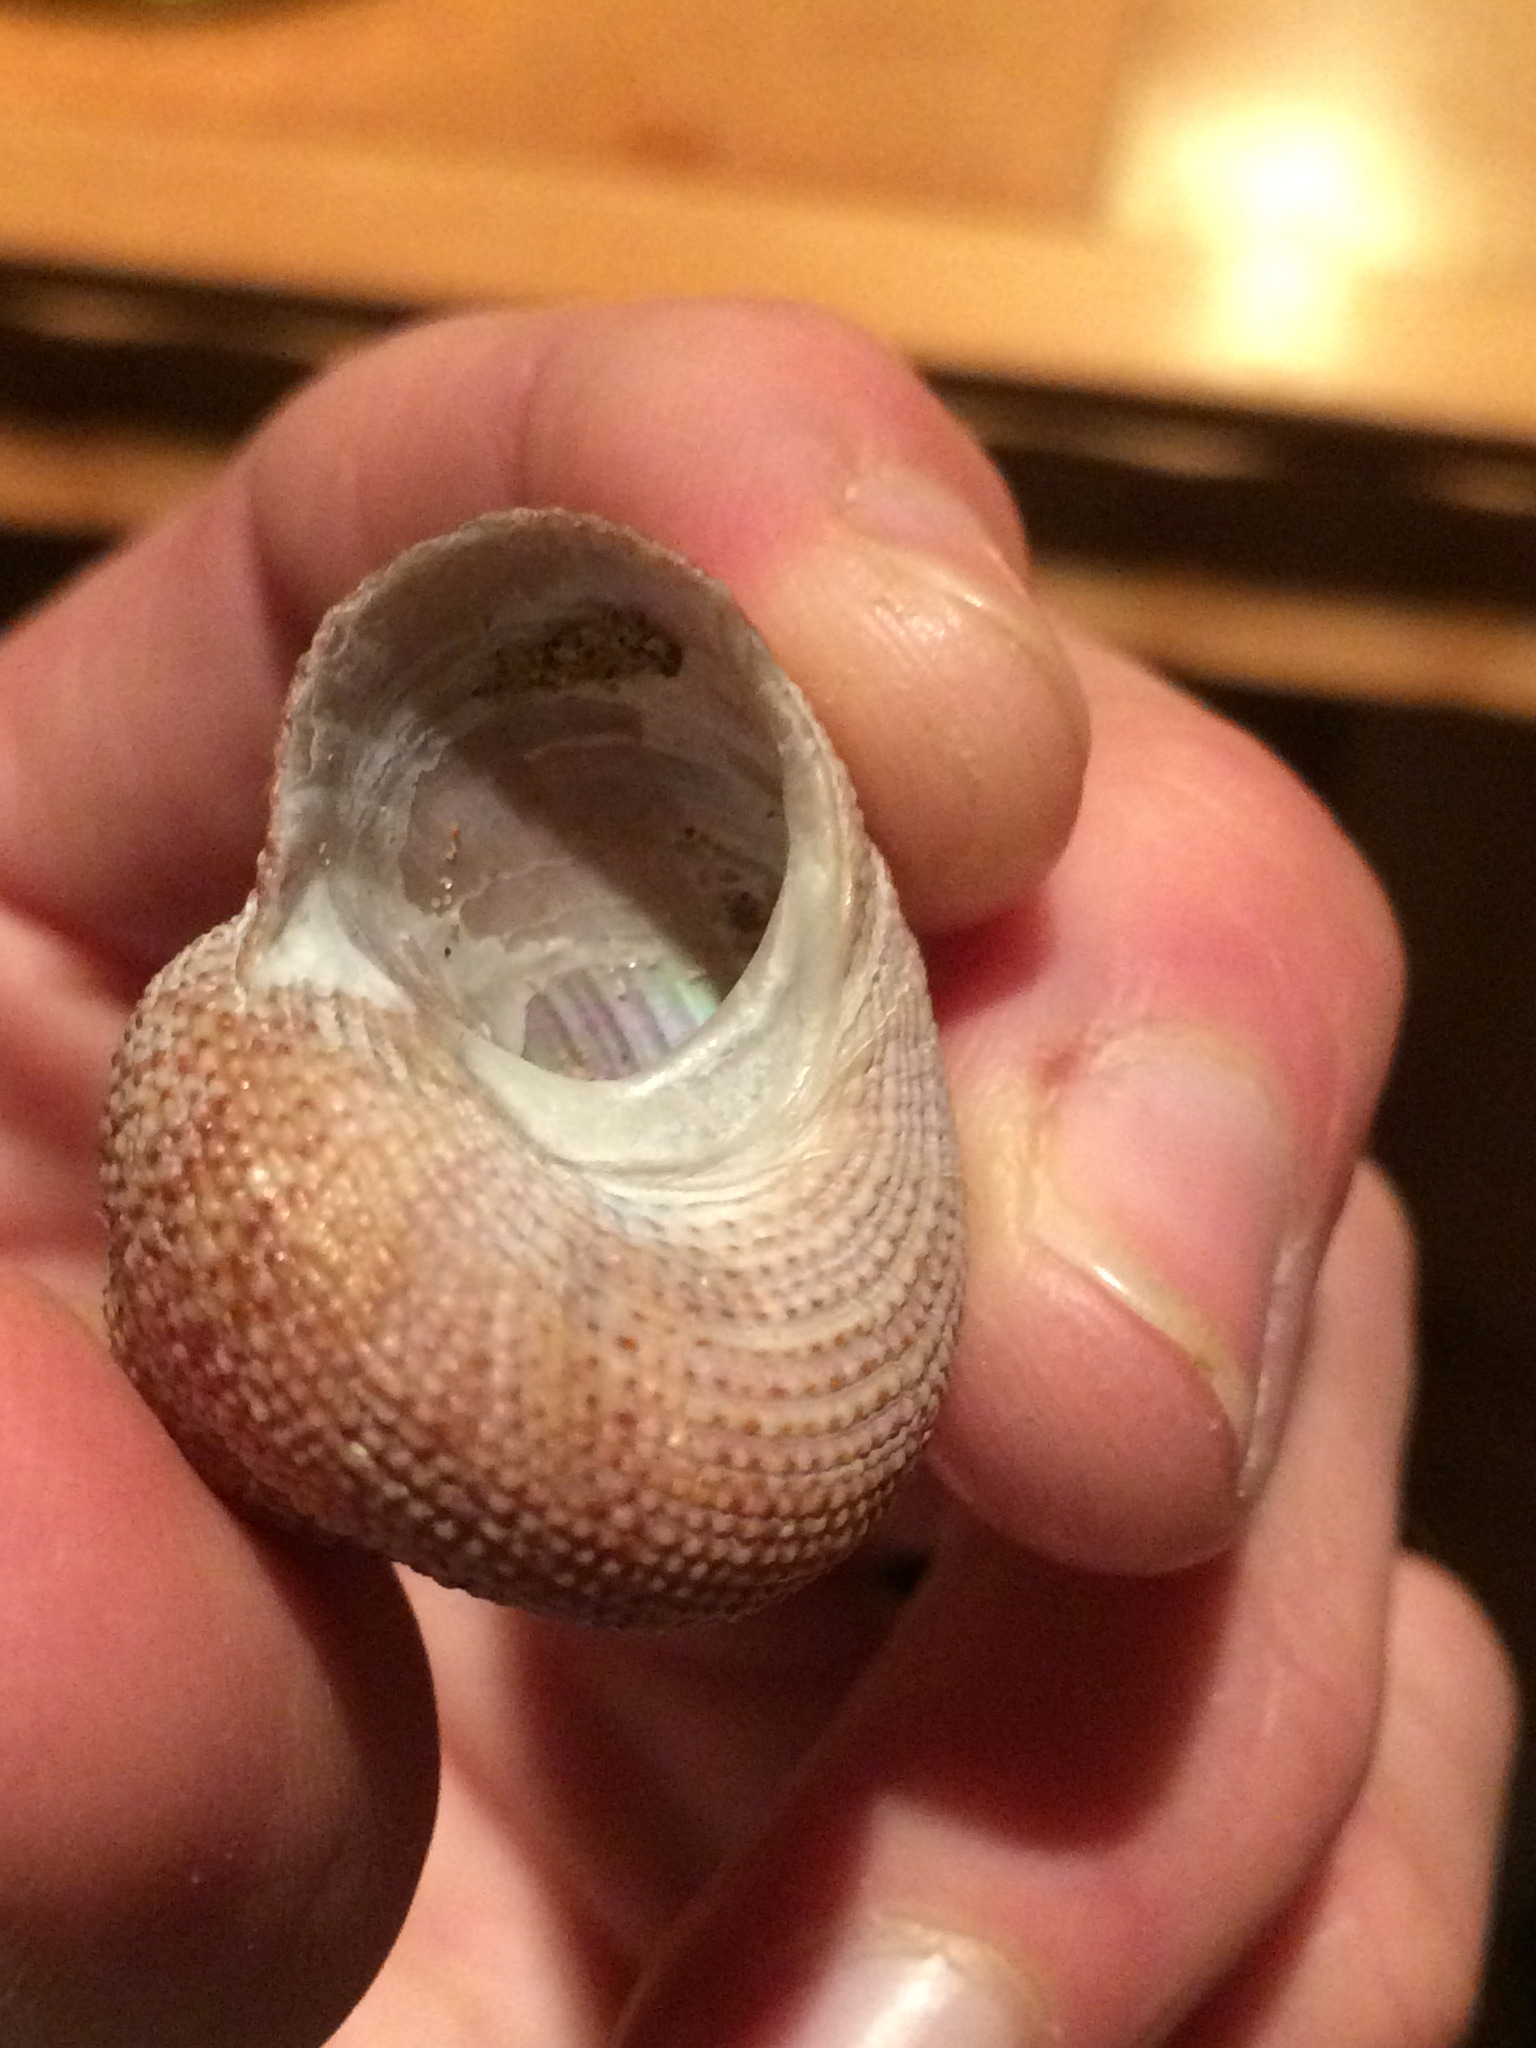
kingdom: Animalia
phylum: Mollusca
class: Gastropoda
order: Trochida
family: Calliostomatidae
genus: Maurea
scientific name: Maurea punctulata
